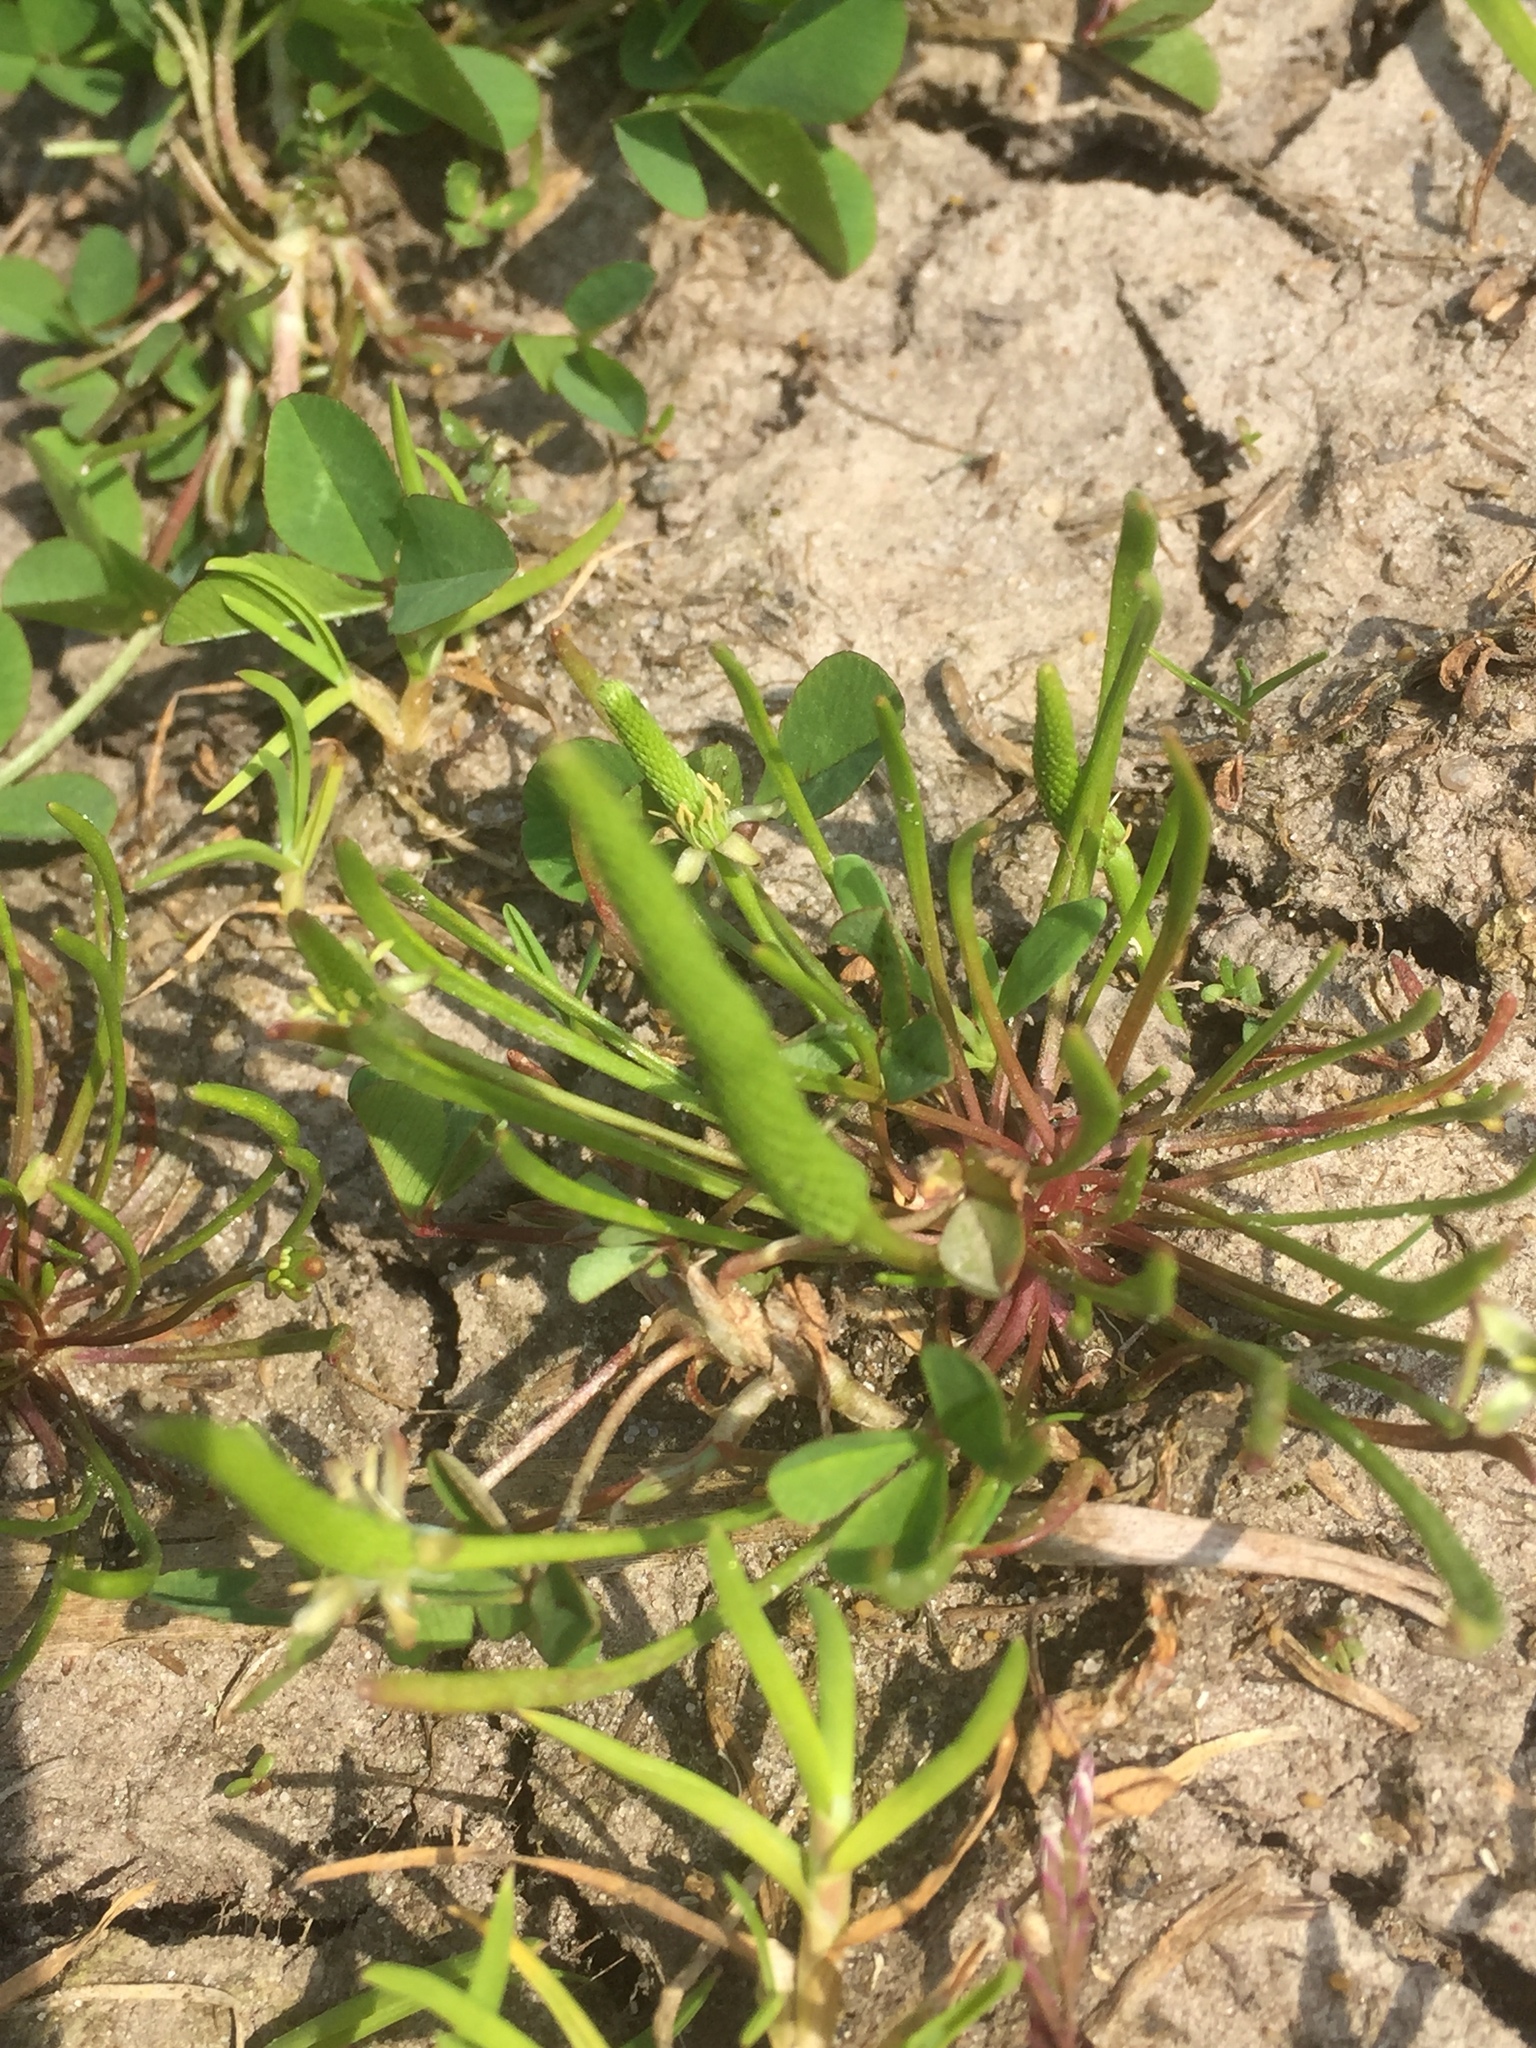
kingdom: Plantae
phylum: Tracheophyta
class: Magnoliopsida
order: Ranunculales
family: Ranunculaceae
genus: Myosurus
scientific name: Myosurus minimus
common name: Mousetail
